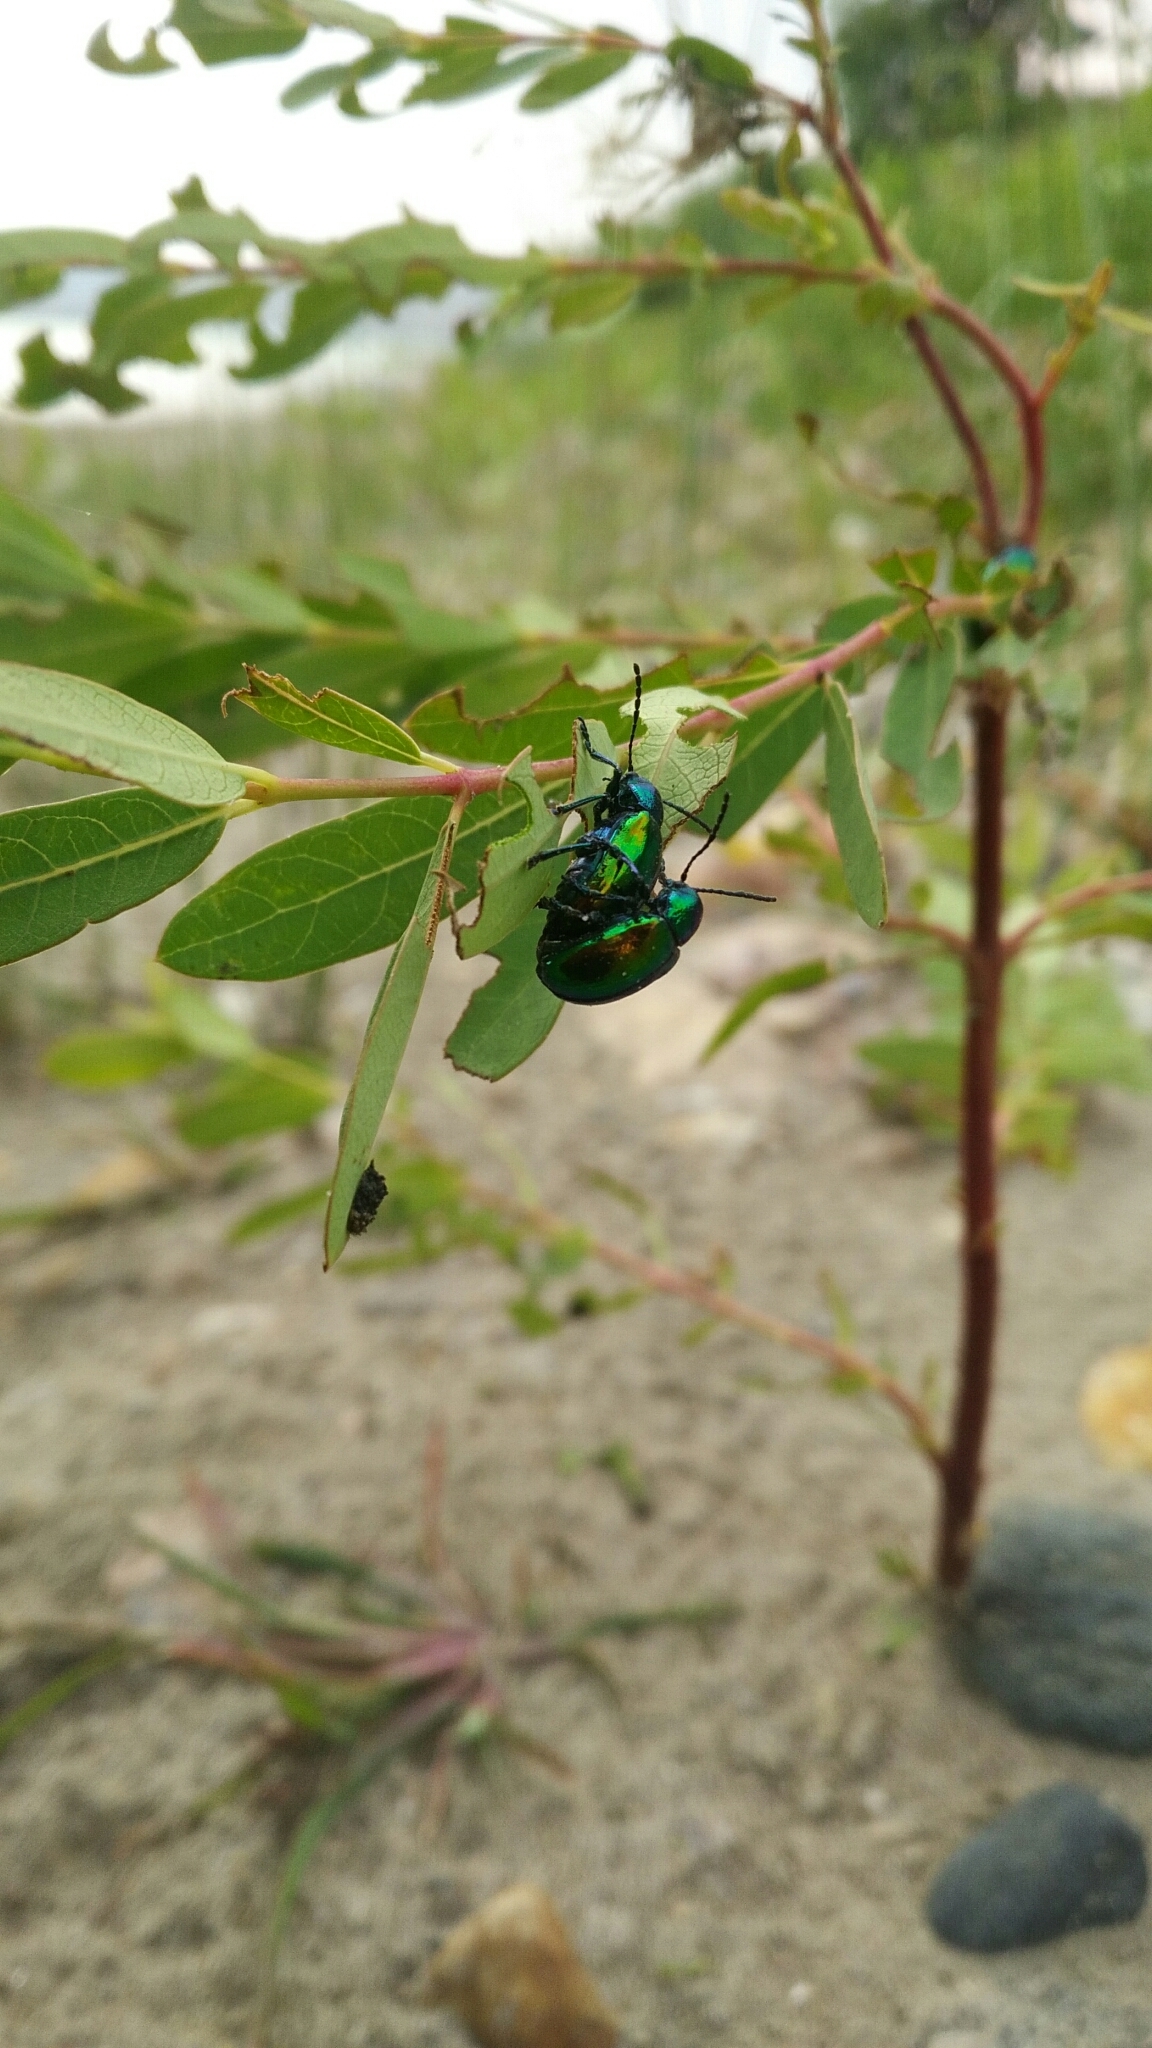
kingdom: Animalia
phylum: Arthropoda
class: Insecta
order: Coleoptera
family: Chrysomelidae
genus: Chrysochus
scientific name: Chrysochus auratus
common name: Dogbane leaf beetle
